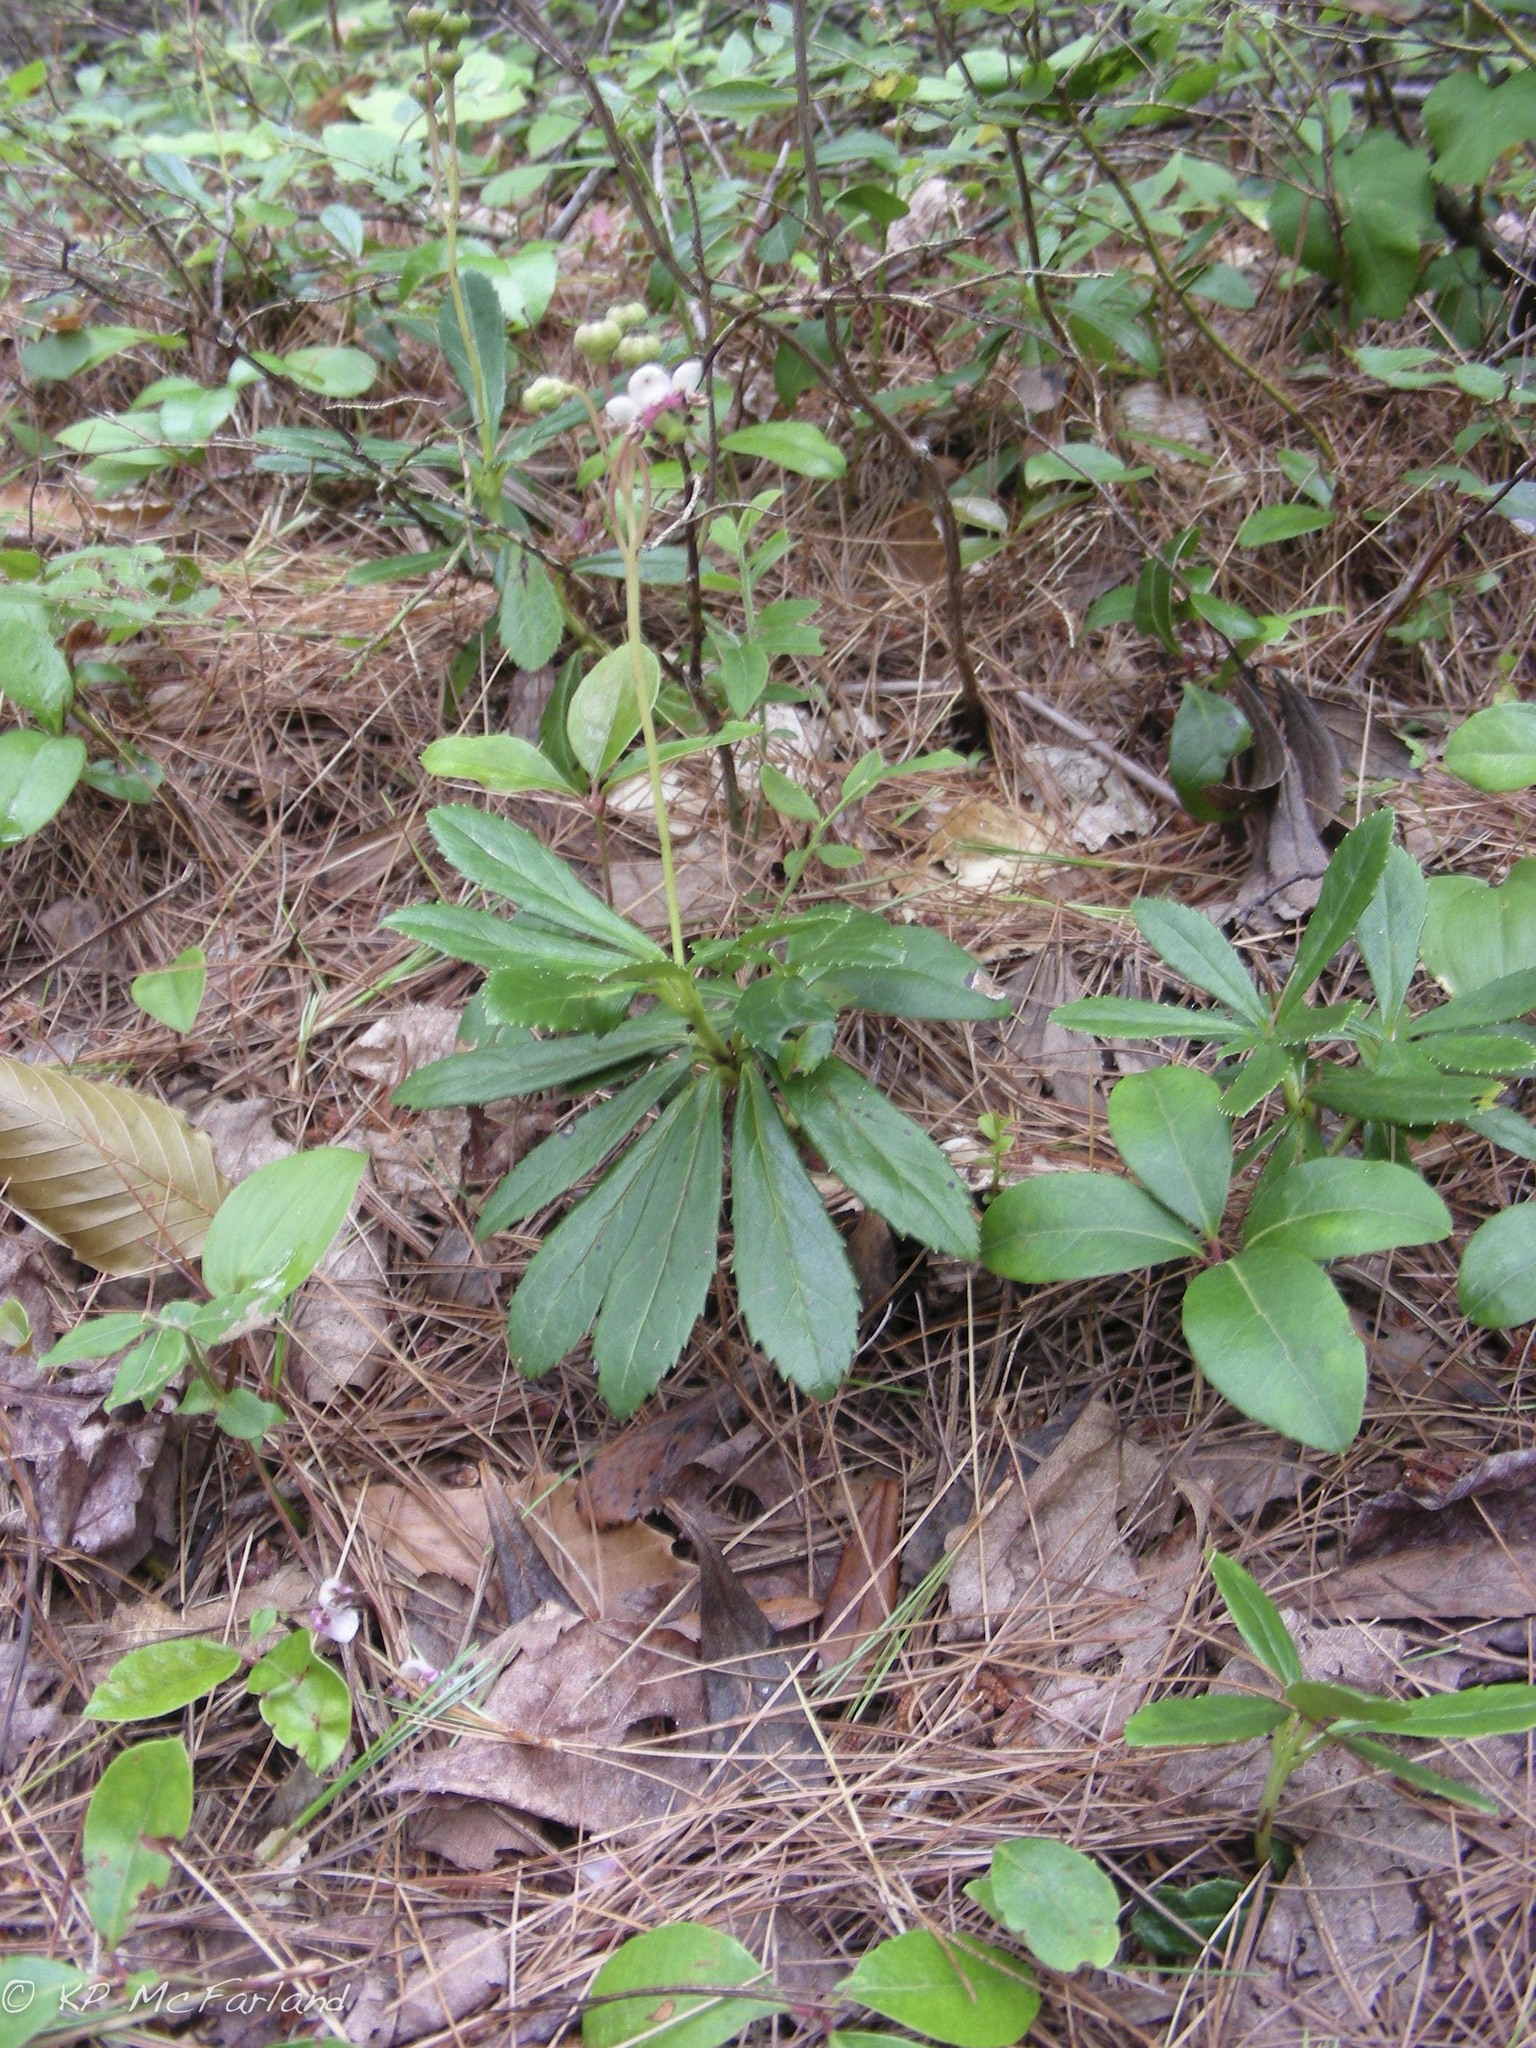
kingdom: Plantae
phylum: Tracheophyta
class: Magnoliopsida
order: Ericales
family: Ericaceae
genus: Chimaphila
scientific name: Chimaphila umbellata
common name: Pipsissewa
